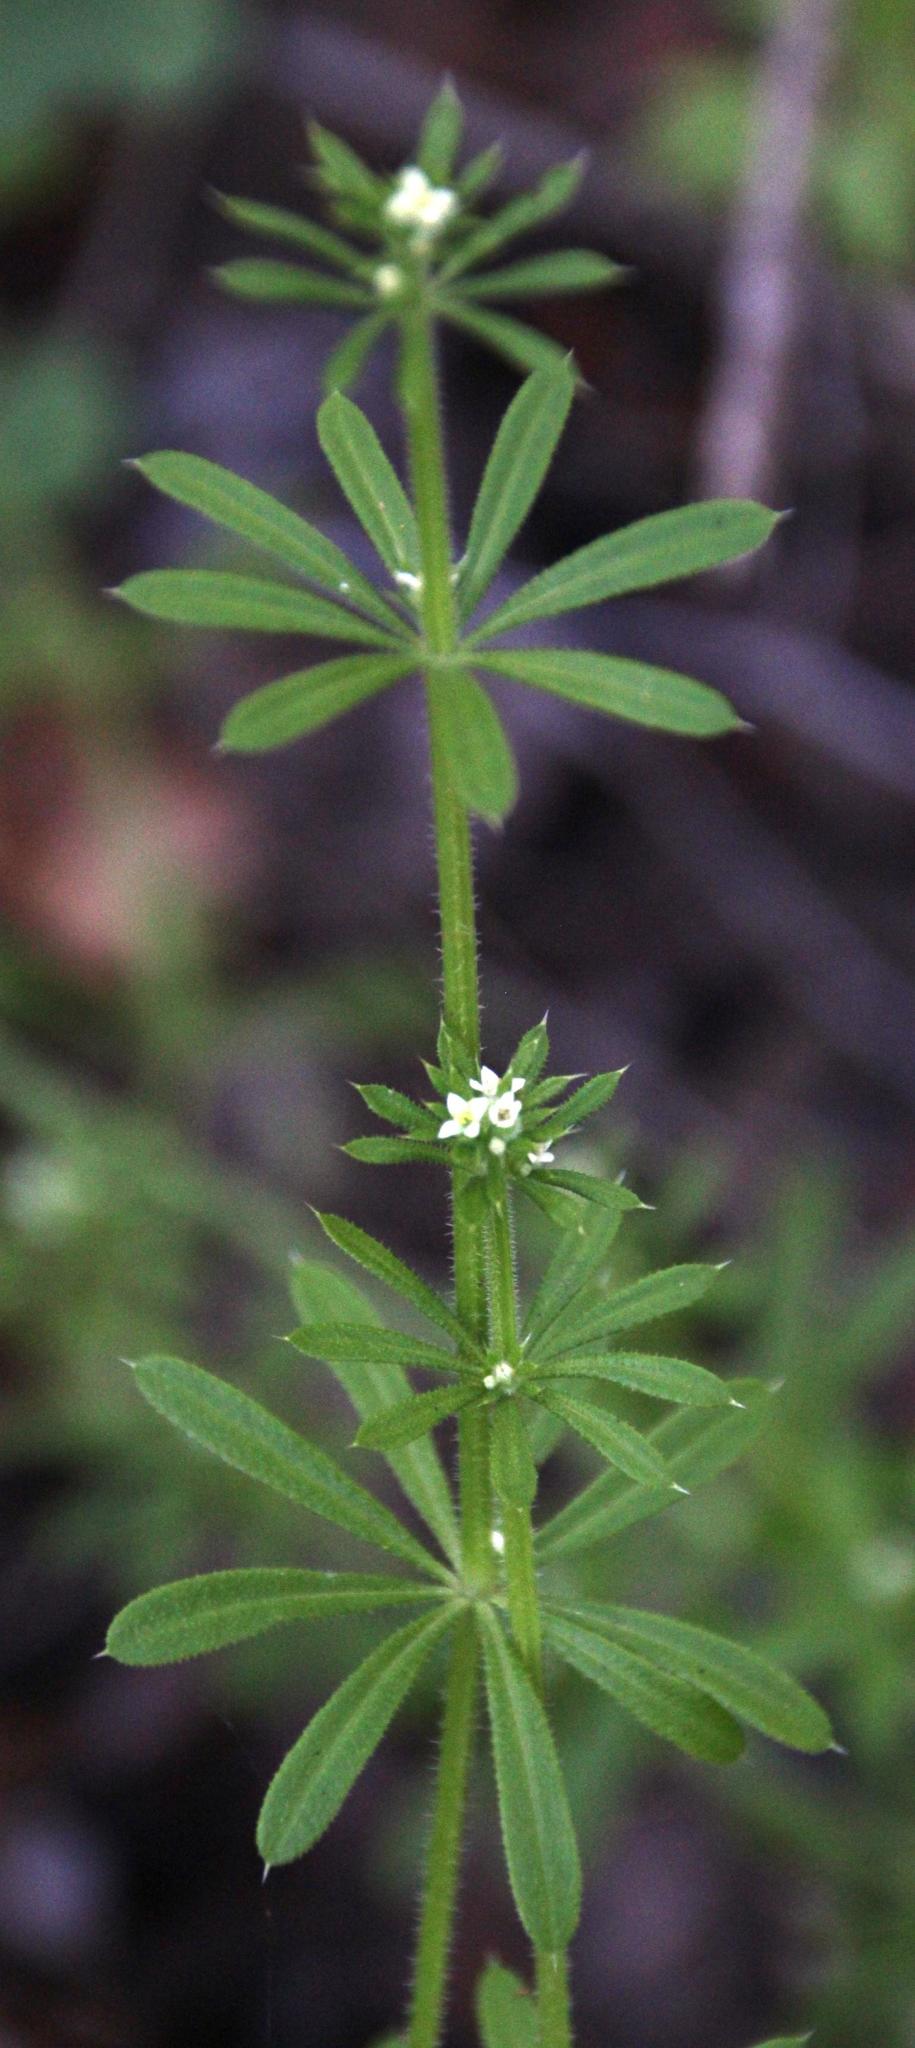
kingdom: Plantae
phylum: Tracheophyta
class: Magnoliopsida
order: Gentianales
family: Rubiaceae
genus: Galium
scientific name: Galium aparine
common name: Cleavers
